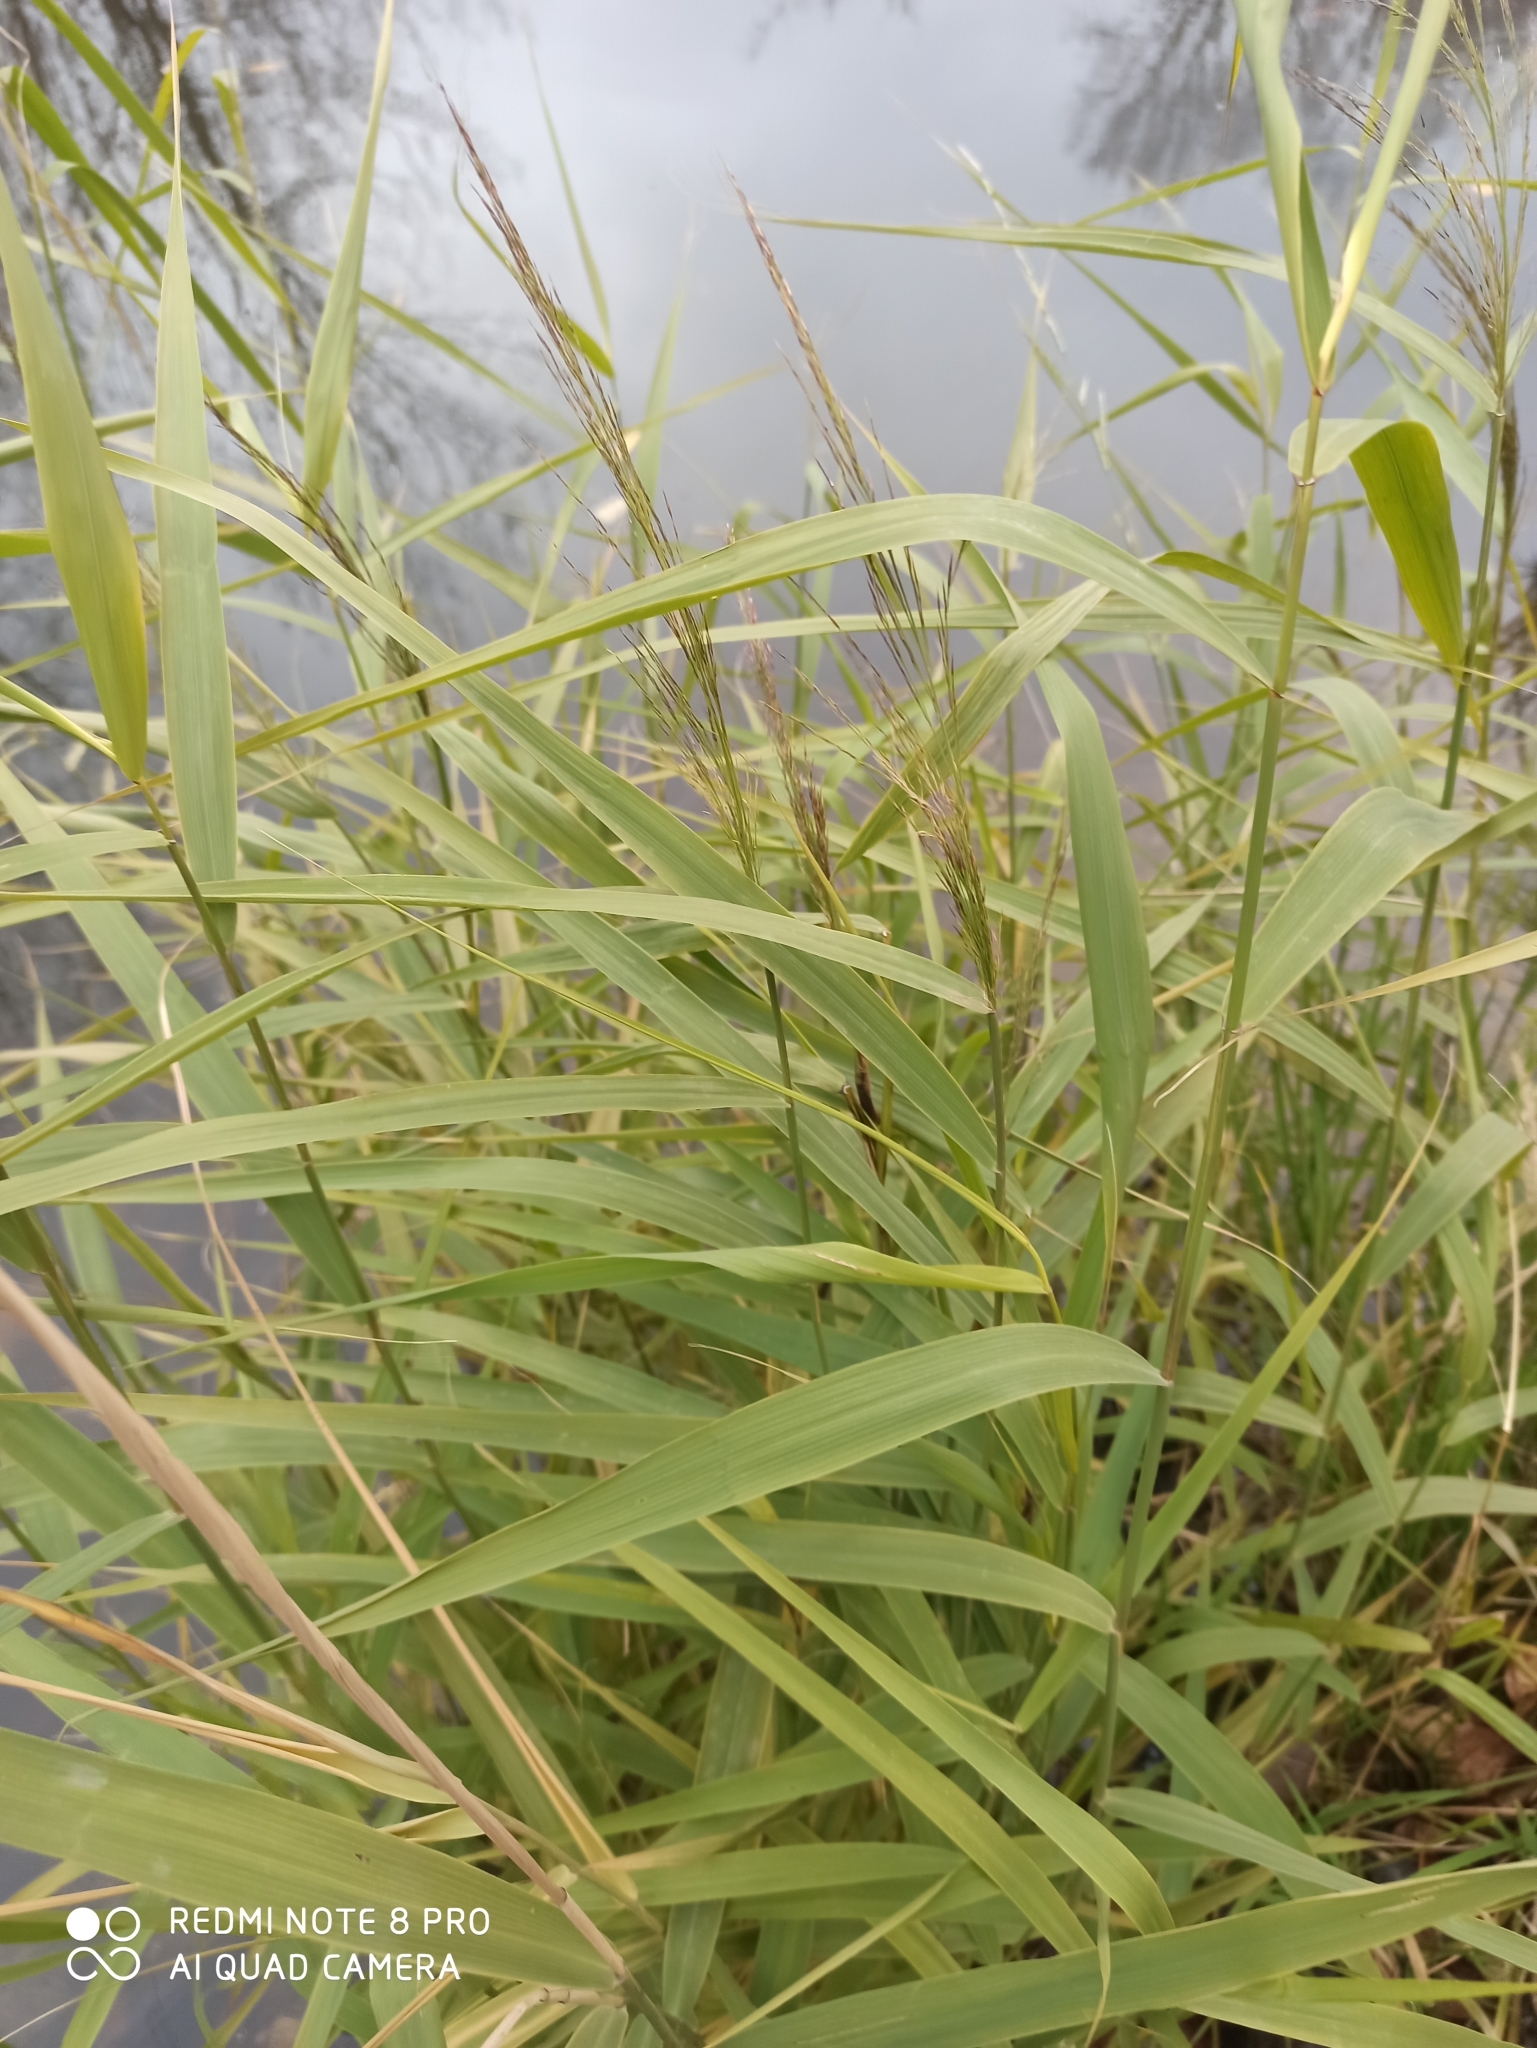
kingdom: Plantae
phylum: Tracheophyta
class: Liliopsida
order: Poales
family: Poaceae
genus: Phragmites
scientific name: Phragmites australis
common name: Common reed
